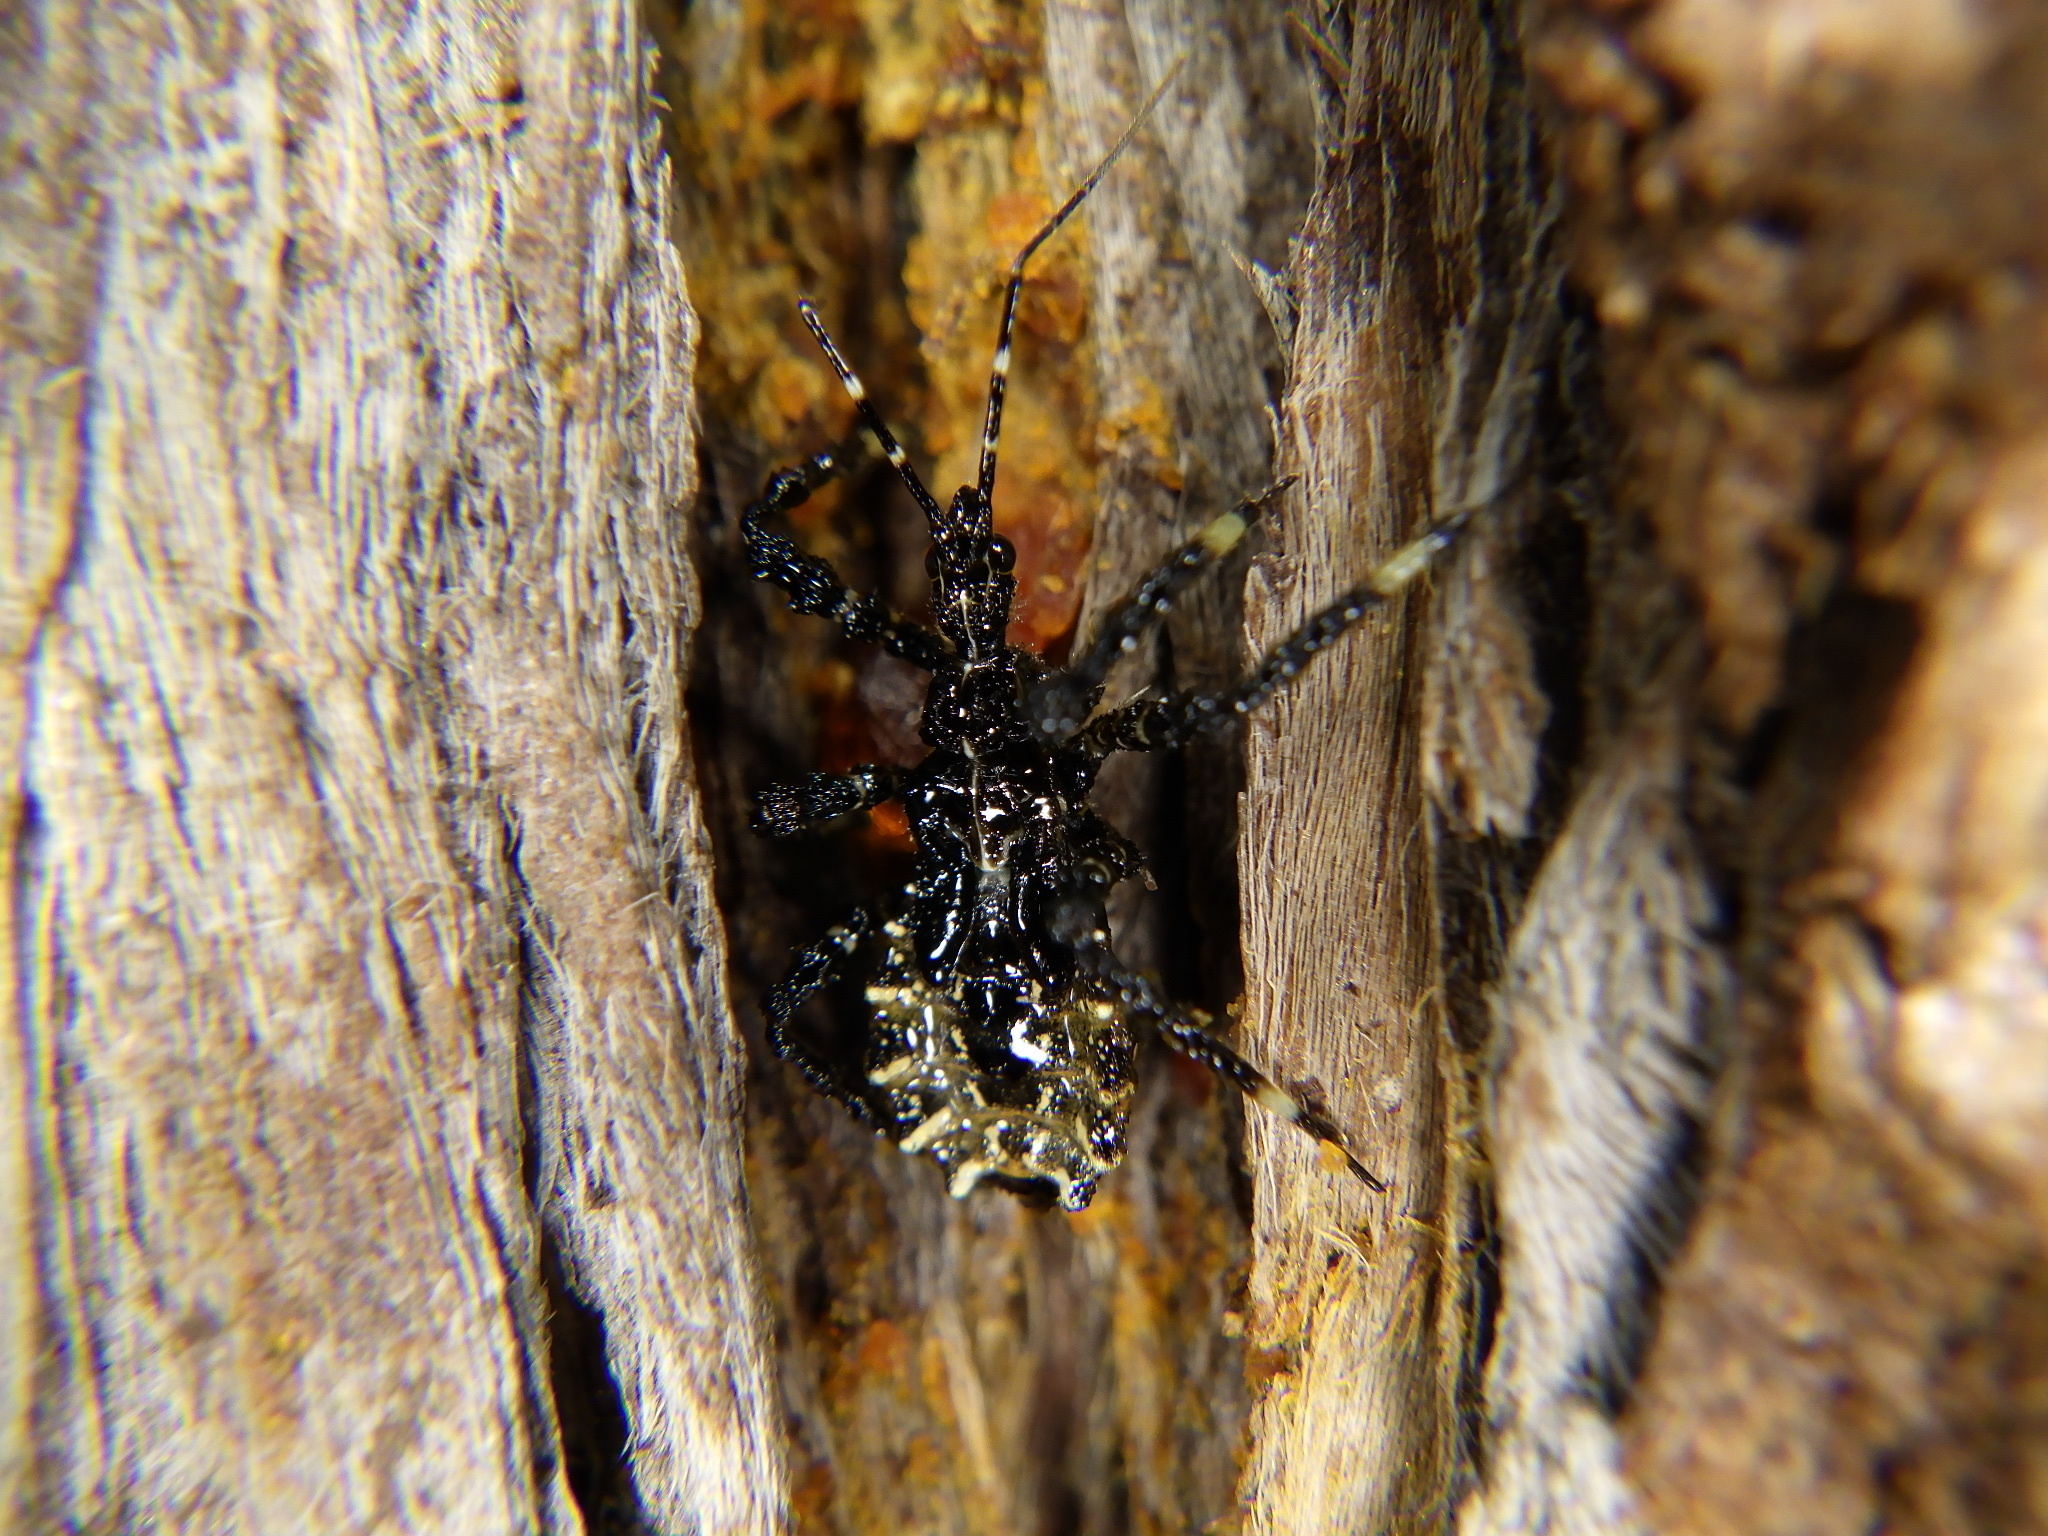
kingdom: Animalia
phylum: Arthropoda
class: Insecta
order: Hemiptera
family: Reduviidae
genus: Velinus
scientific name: Velinus nodipes
